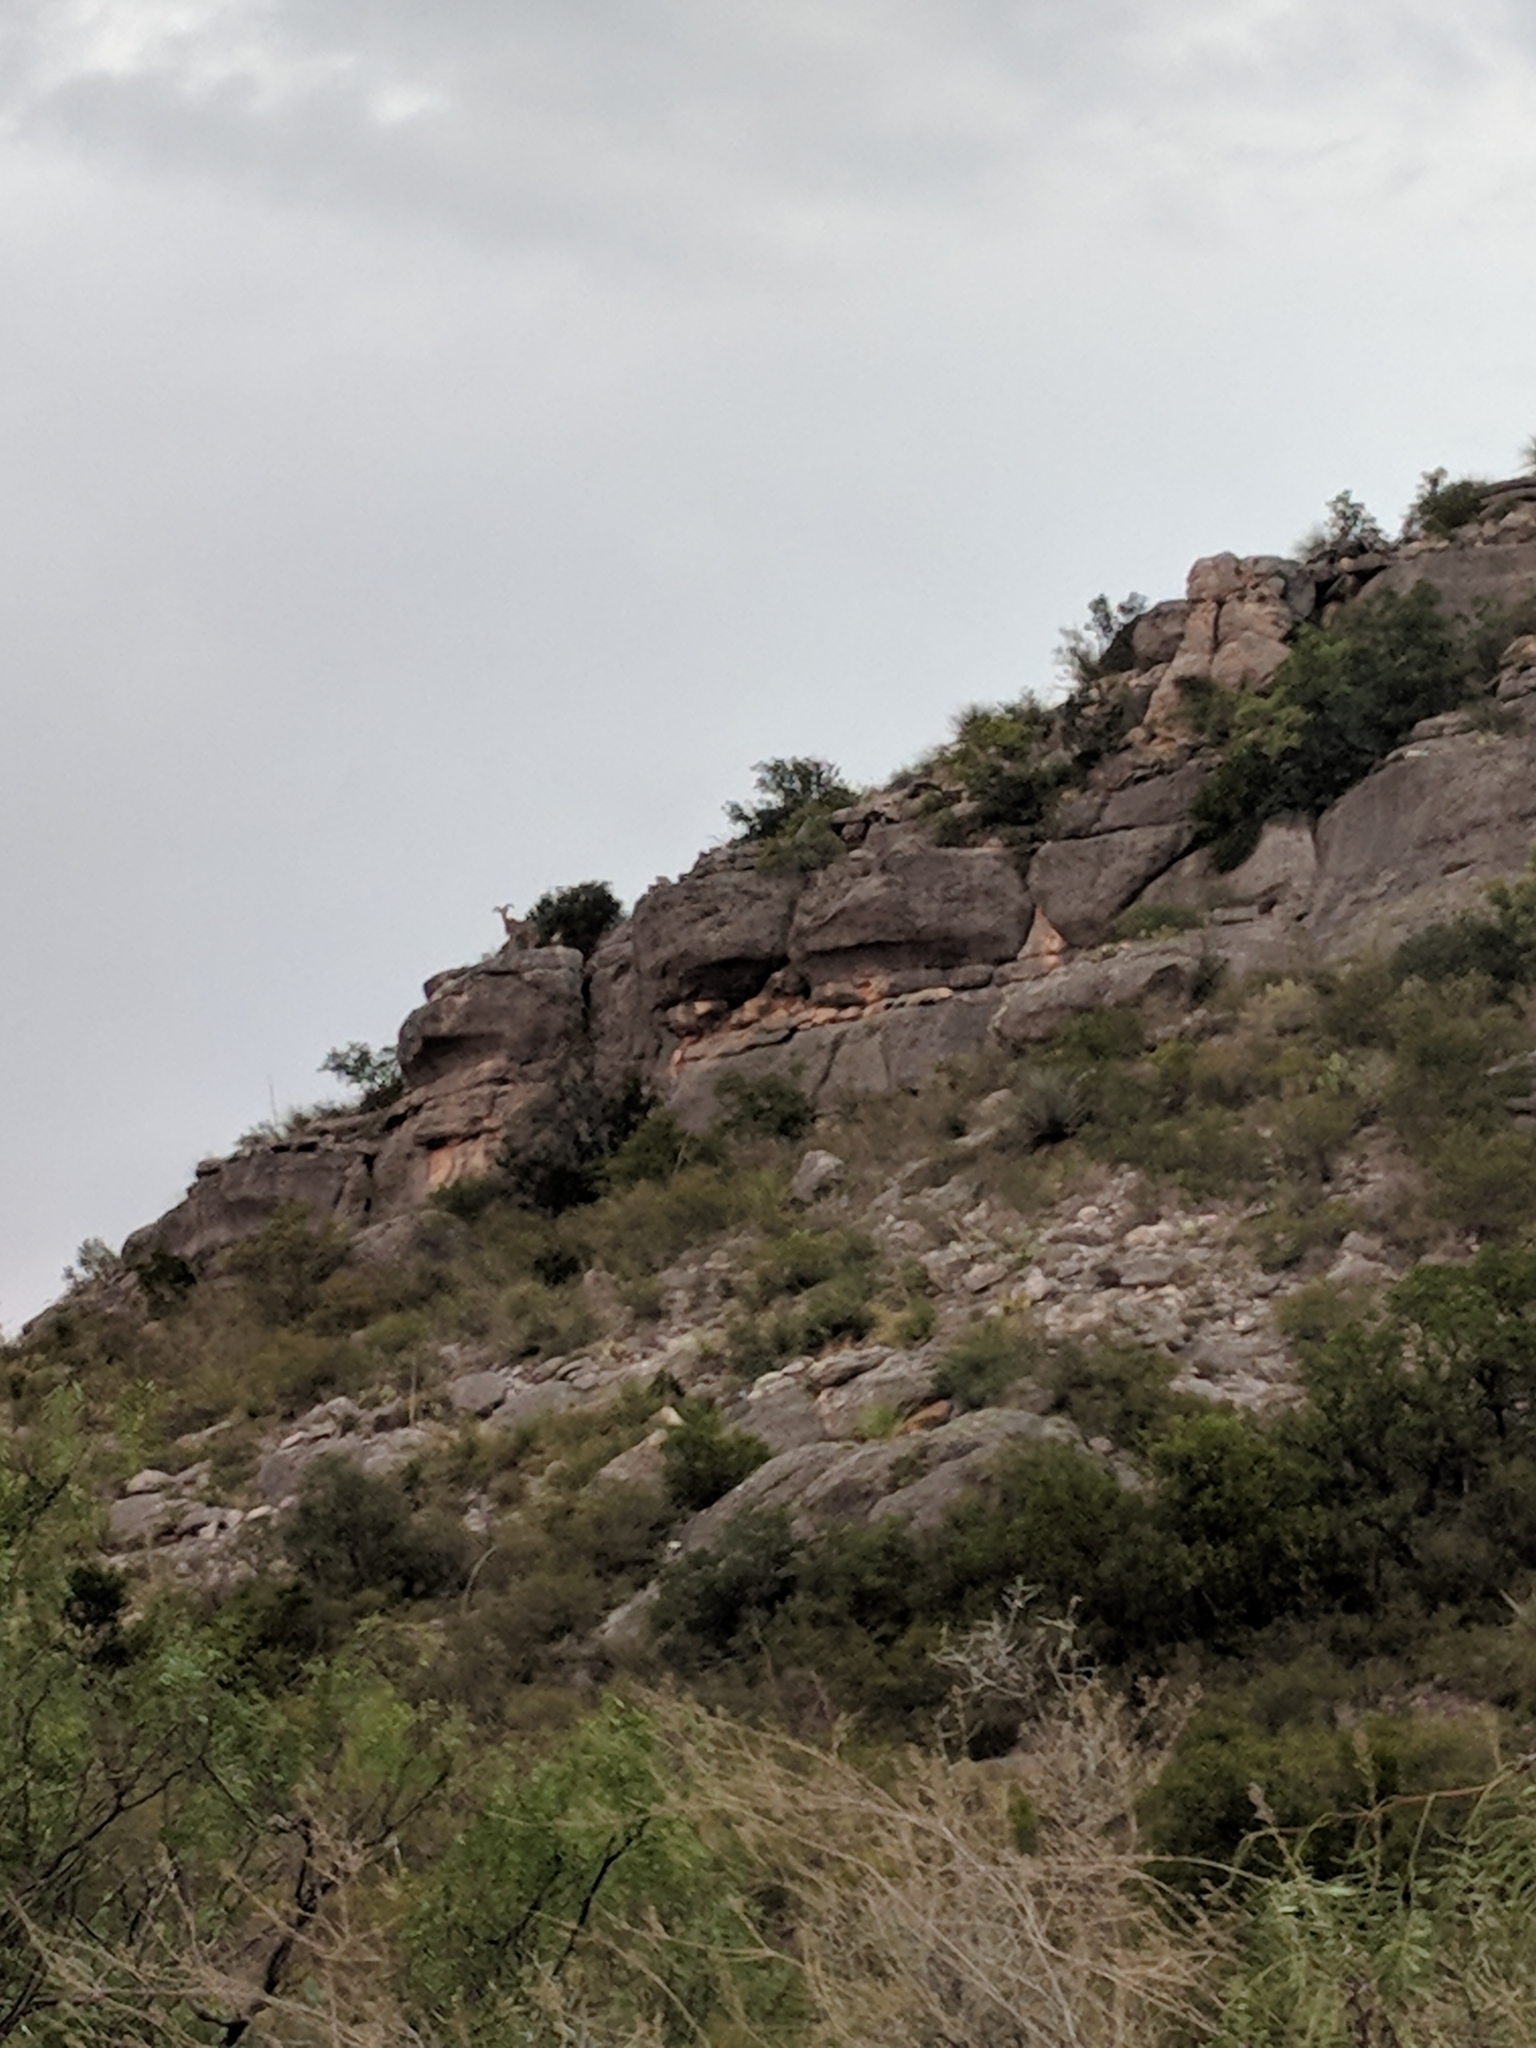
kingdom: Animalia
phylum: Chordata
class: Mammalia
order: Artiodactyla
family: Bovidae
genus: Ammotragus
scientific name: Ammotragus lervia
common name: Barbary sheep
